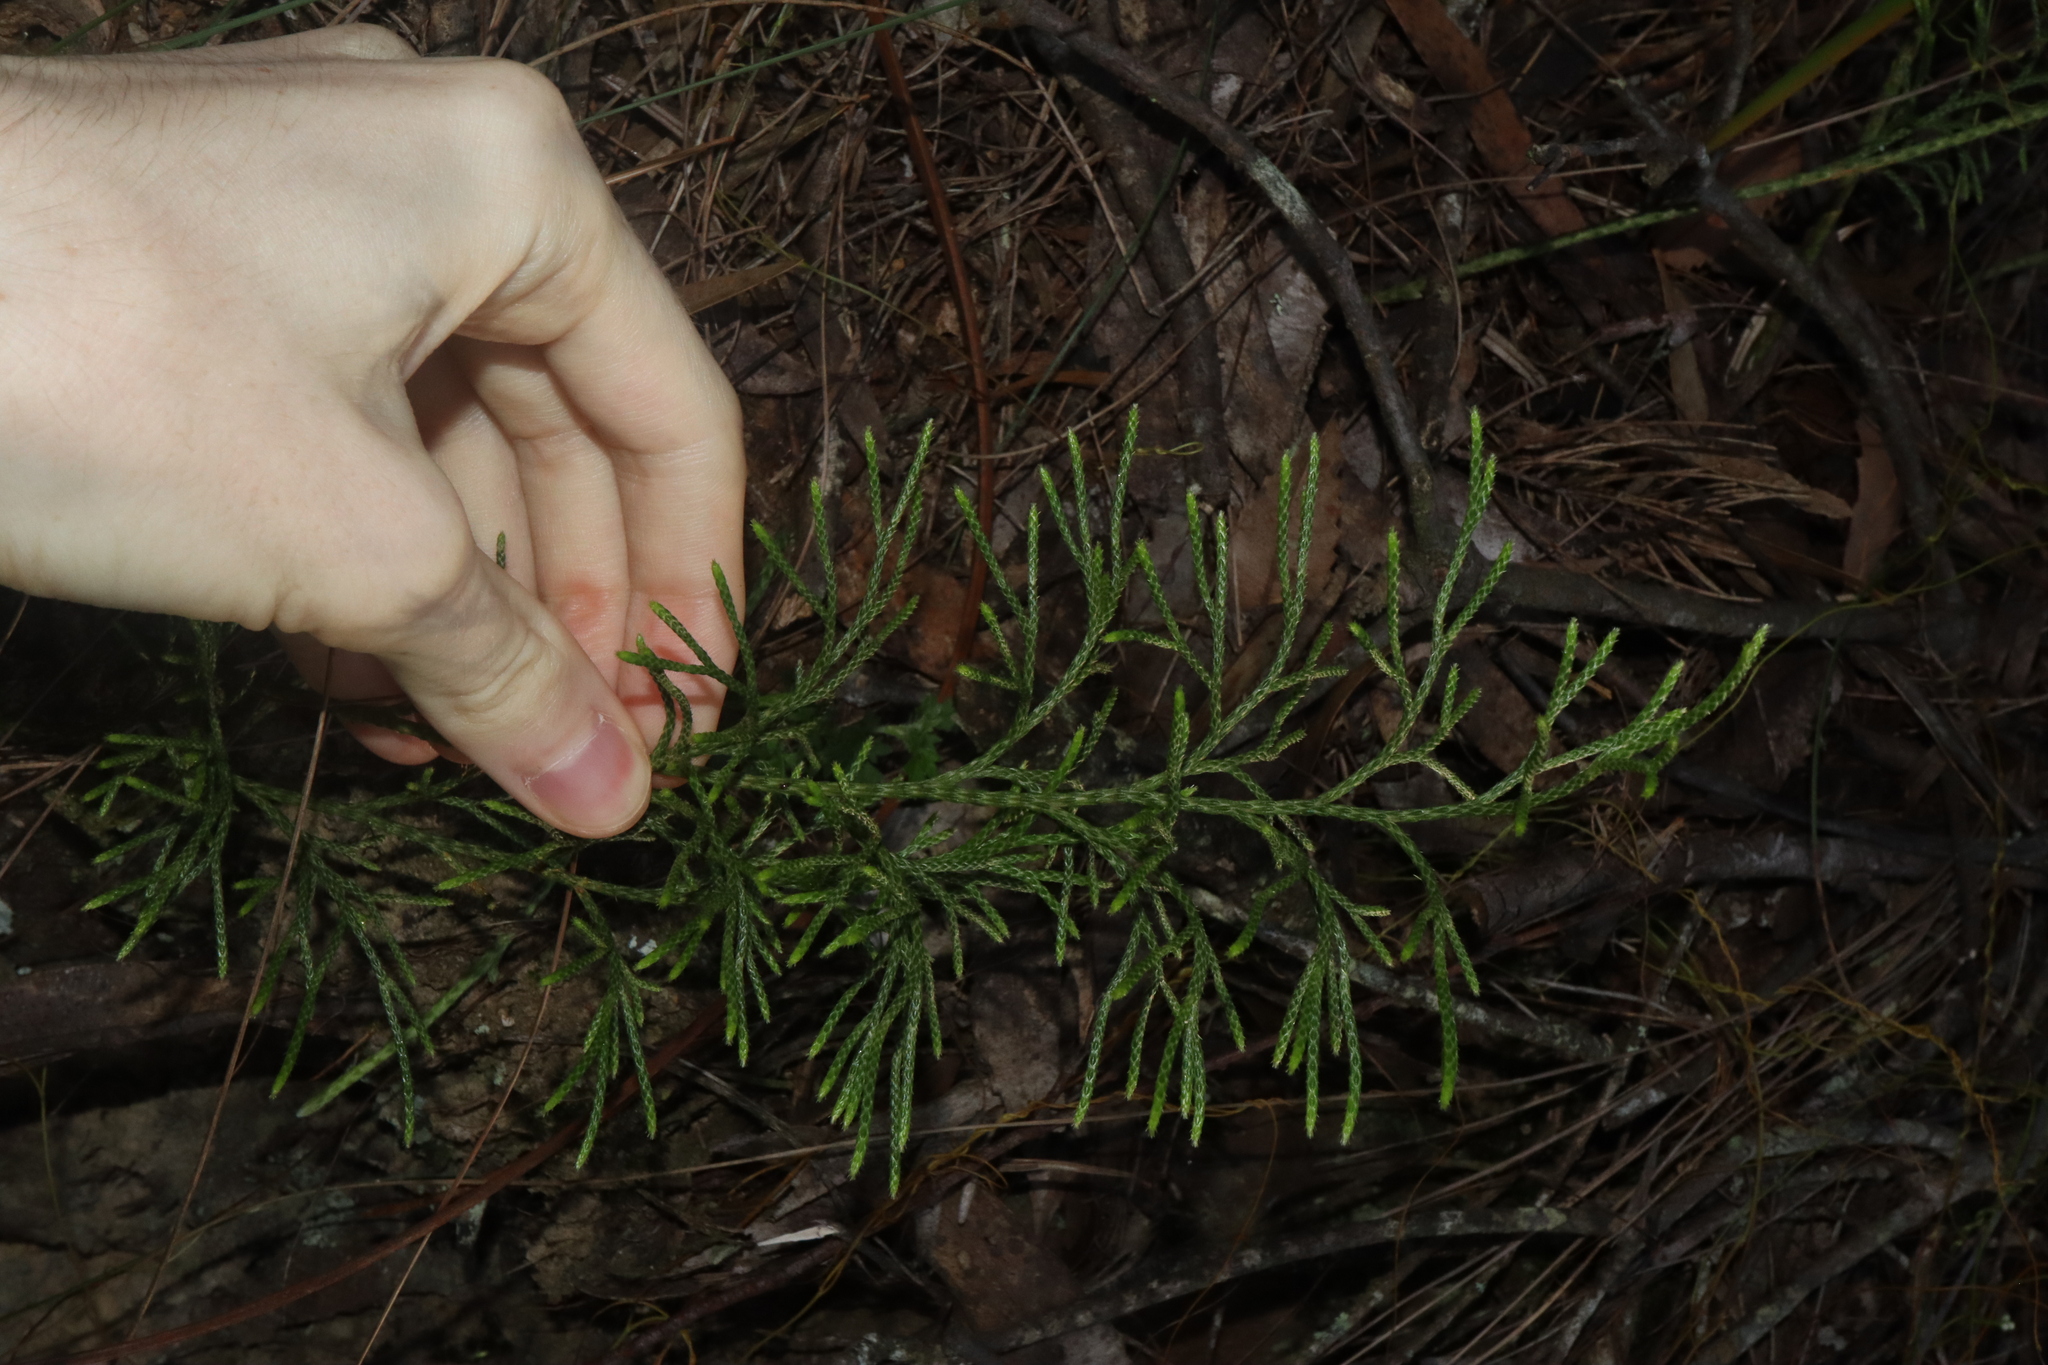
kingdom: Plantae
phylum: Tracheophyta
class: Lycopodiopsida
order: Lycopodiales
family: Lycopodiaceae
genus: Pseudolycopodium
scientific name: Pseudolycopodium densum
